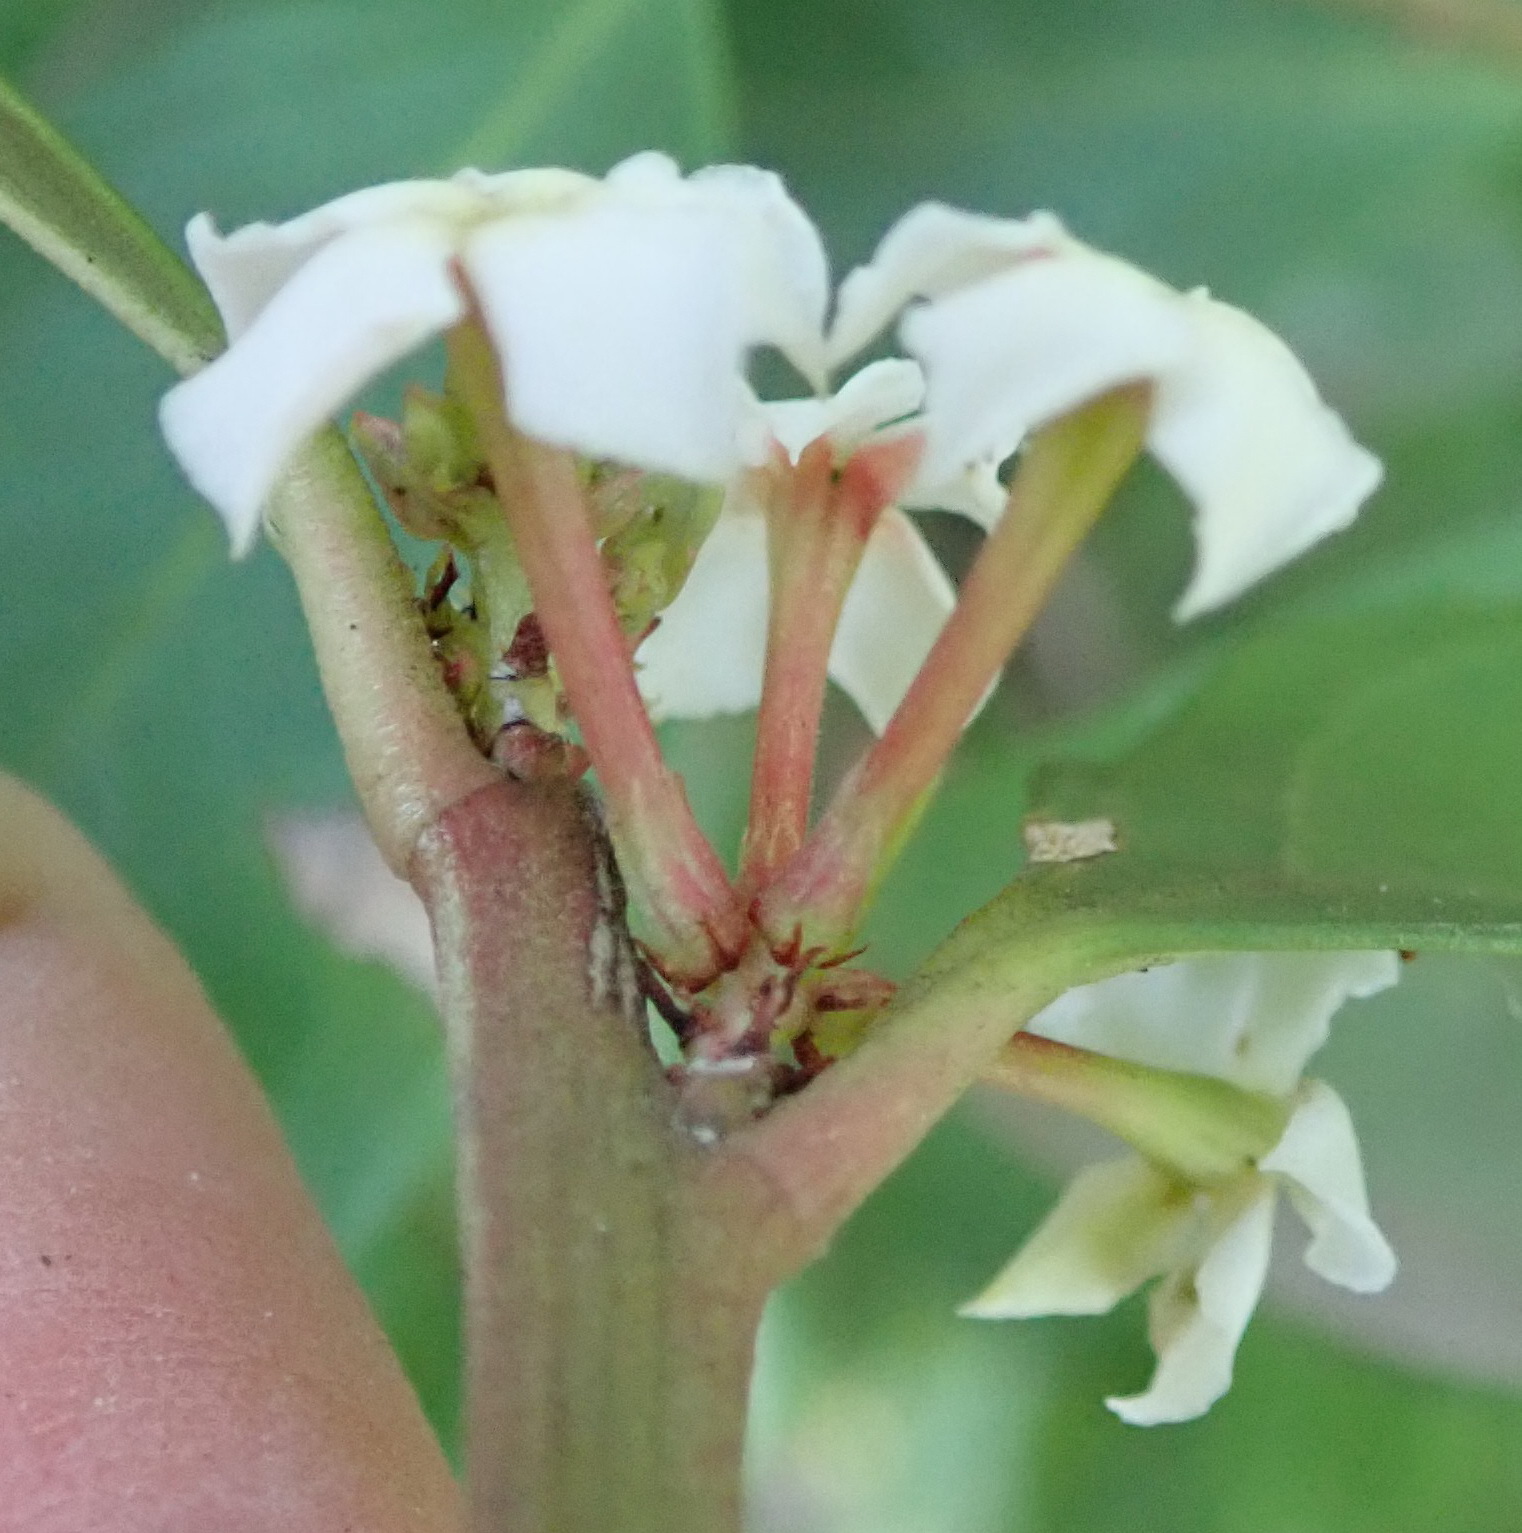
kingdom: Plantae
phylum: Tracheophyta
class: Magnoliopsida
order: Gentianales
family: Apocynaceae
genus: Acokanthera
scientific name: Acokanthera oppositifolia
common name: Bushman's-poison
